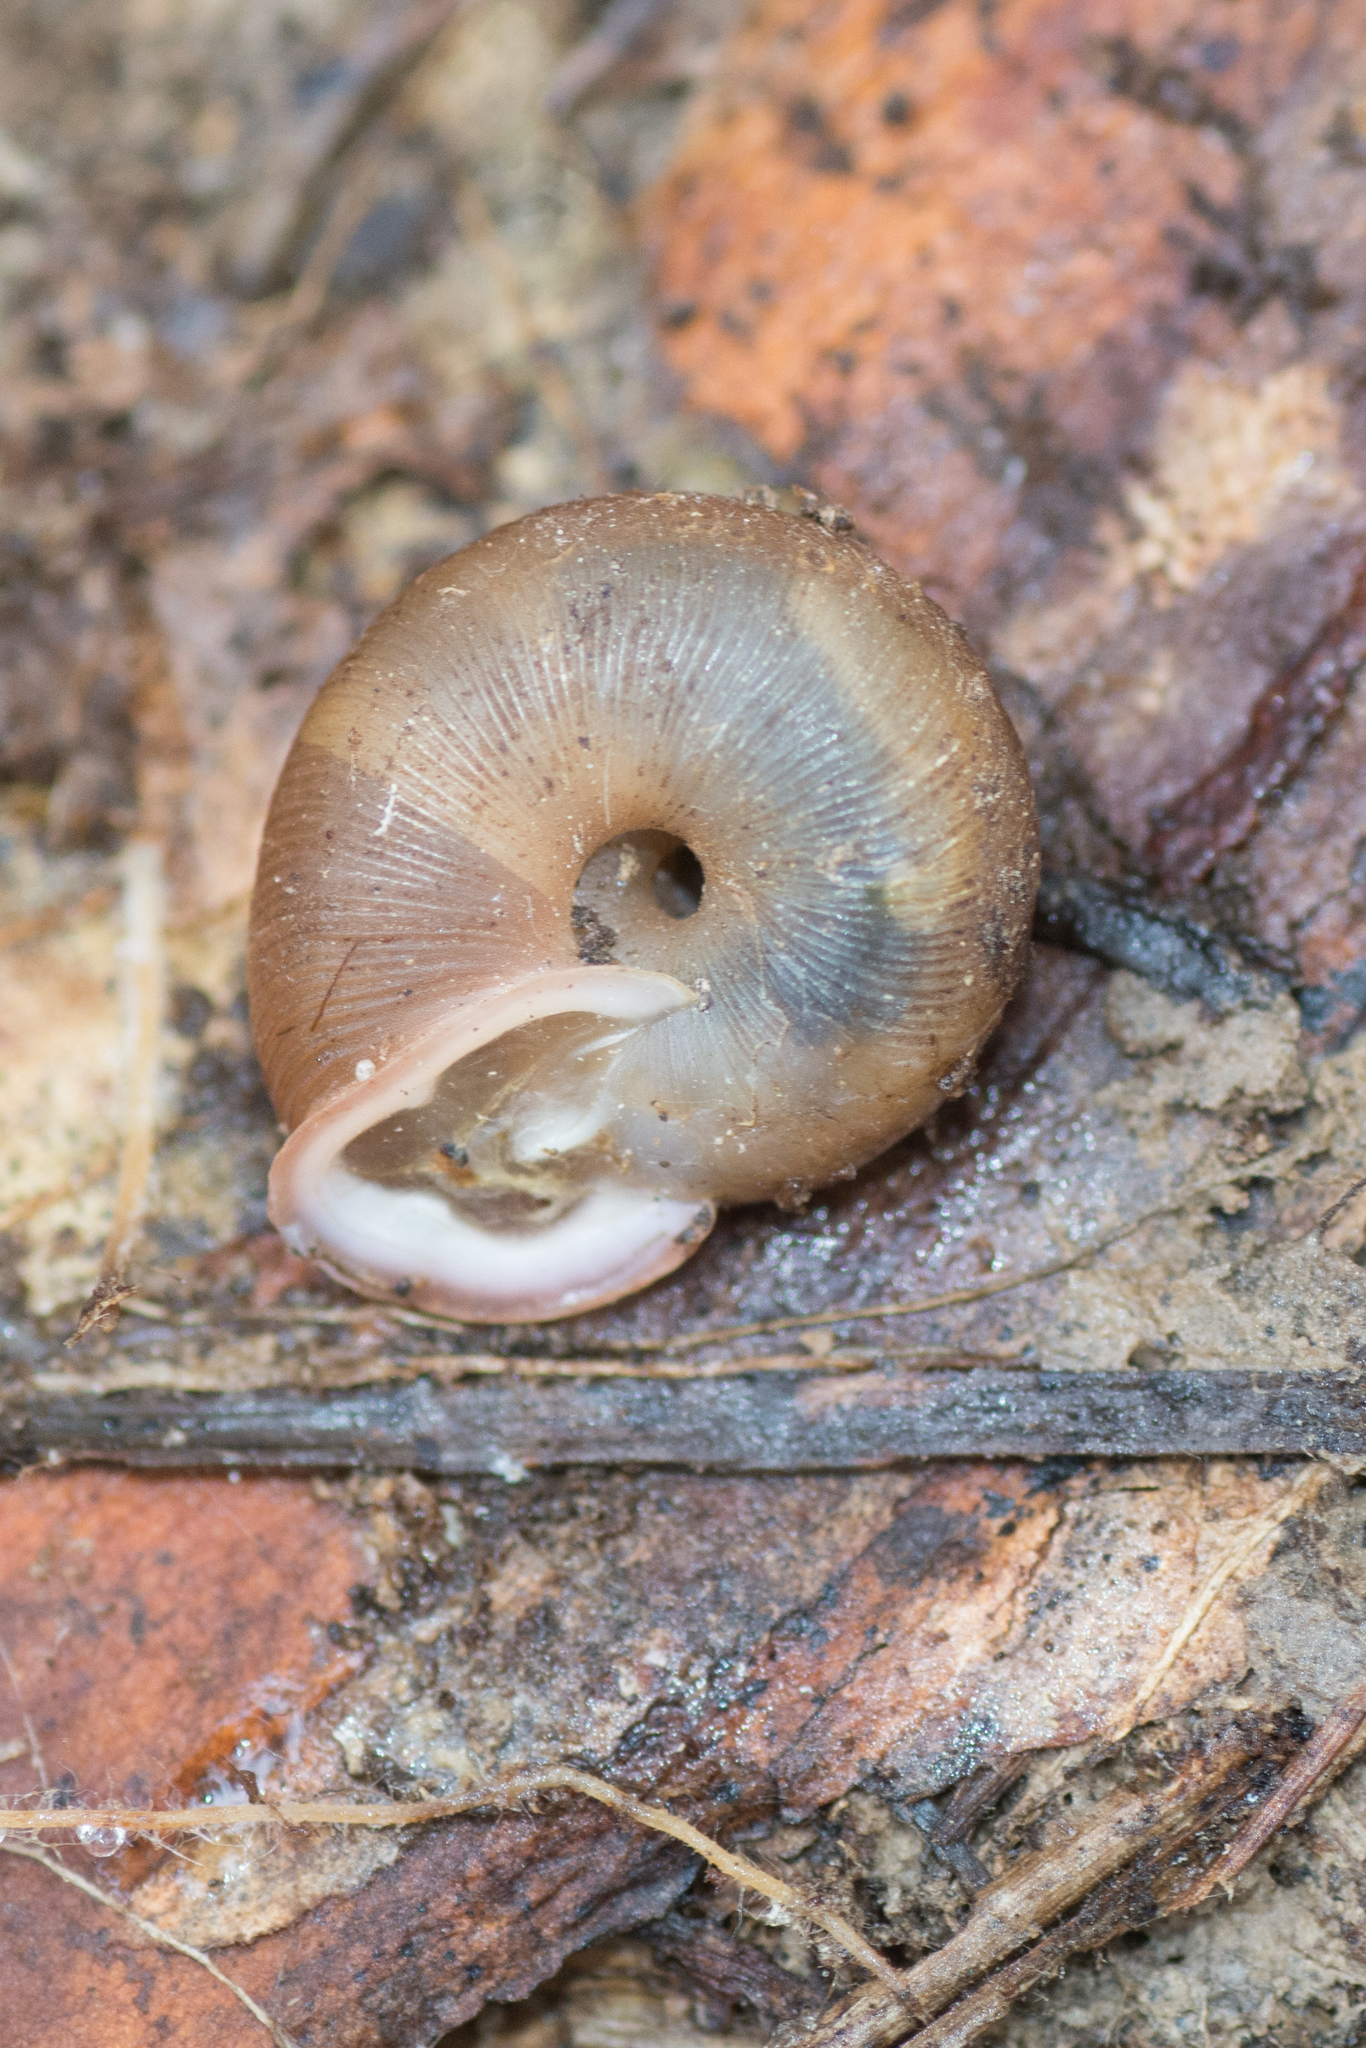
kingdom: Animalia
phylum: Mollusca
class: Gastropoda
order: Stylommatophora
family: Polygyridae
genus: Triodopsis
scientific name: Triodopsis tridentata
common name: Northern threetooth
